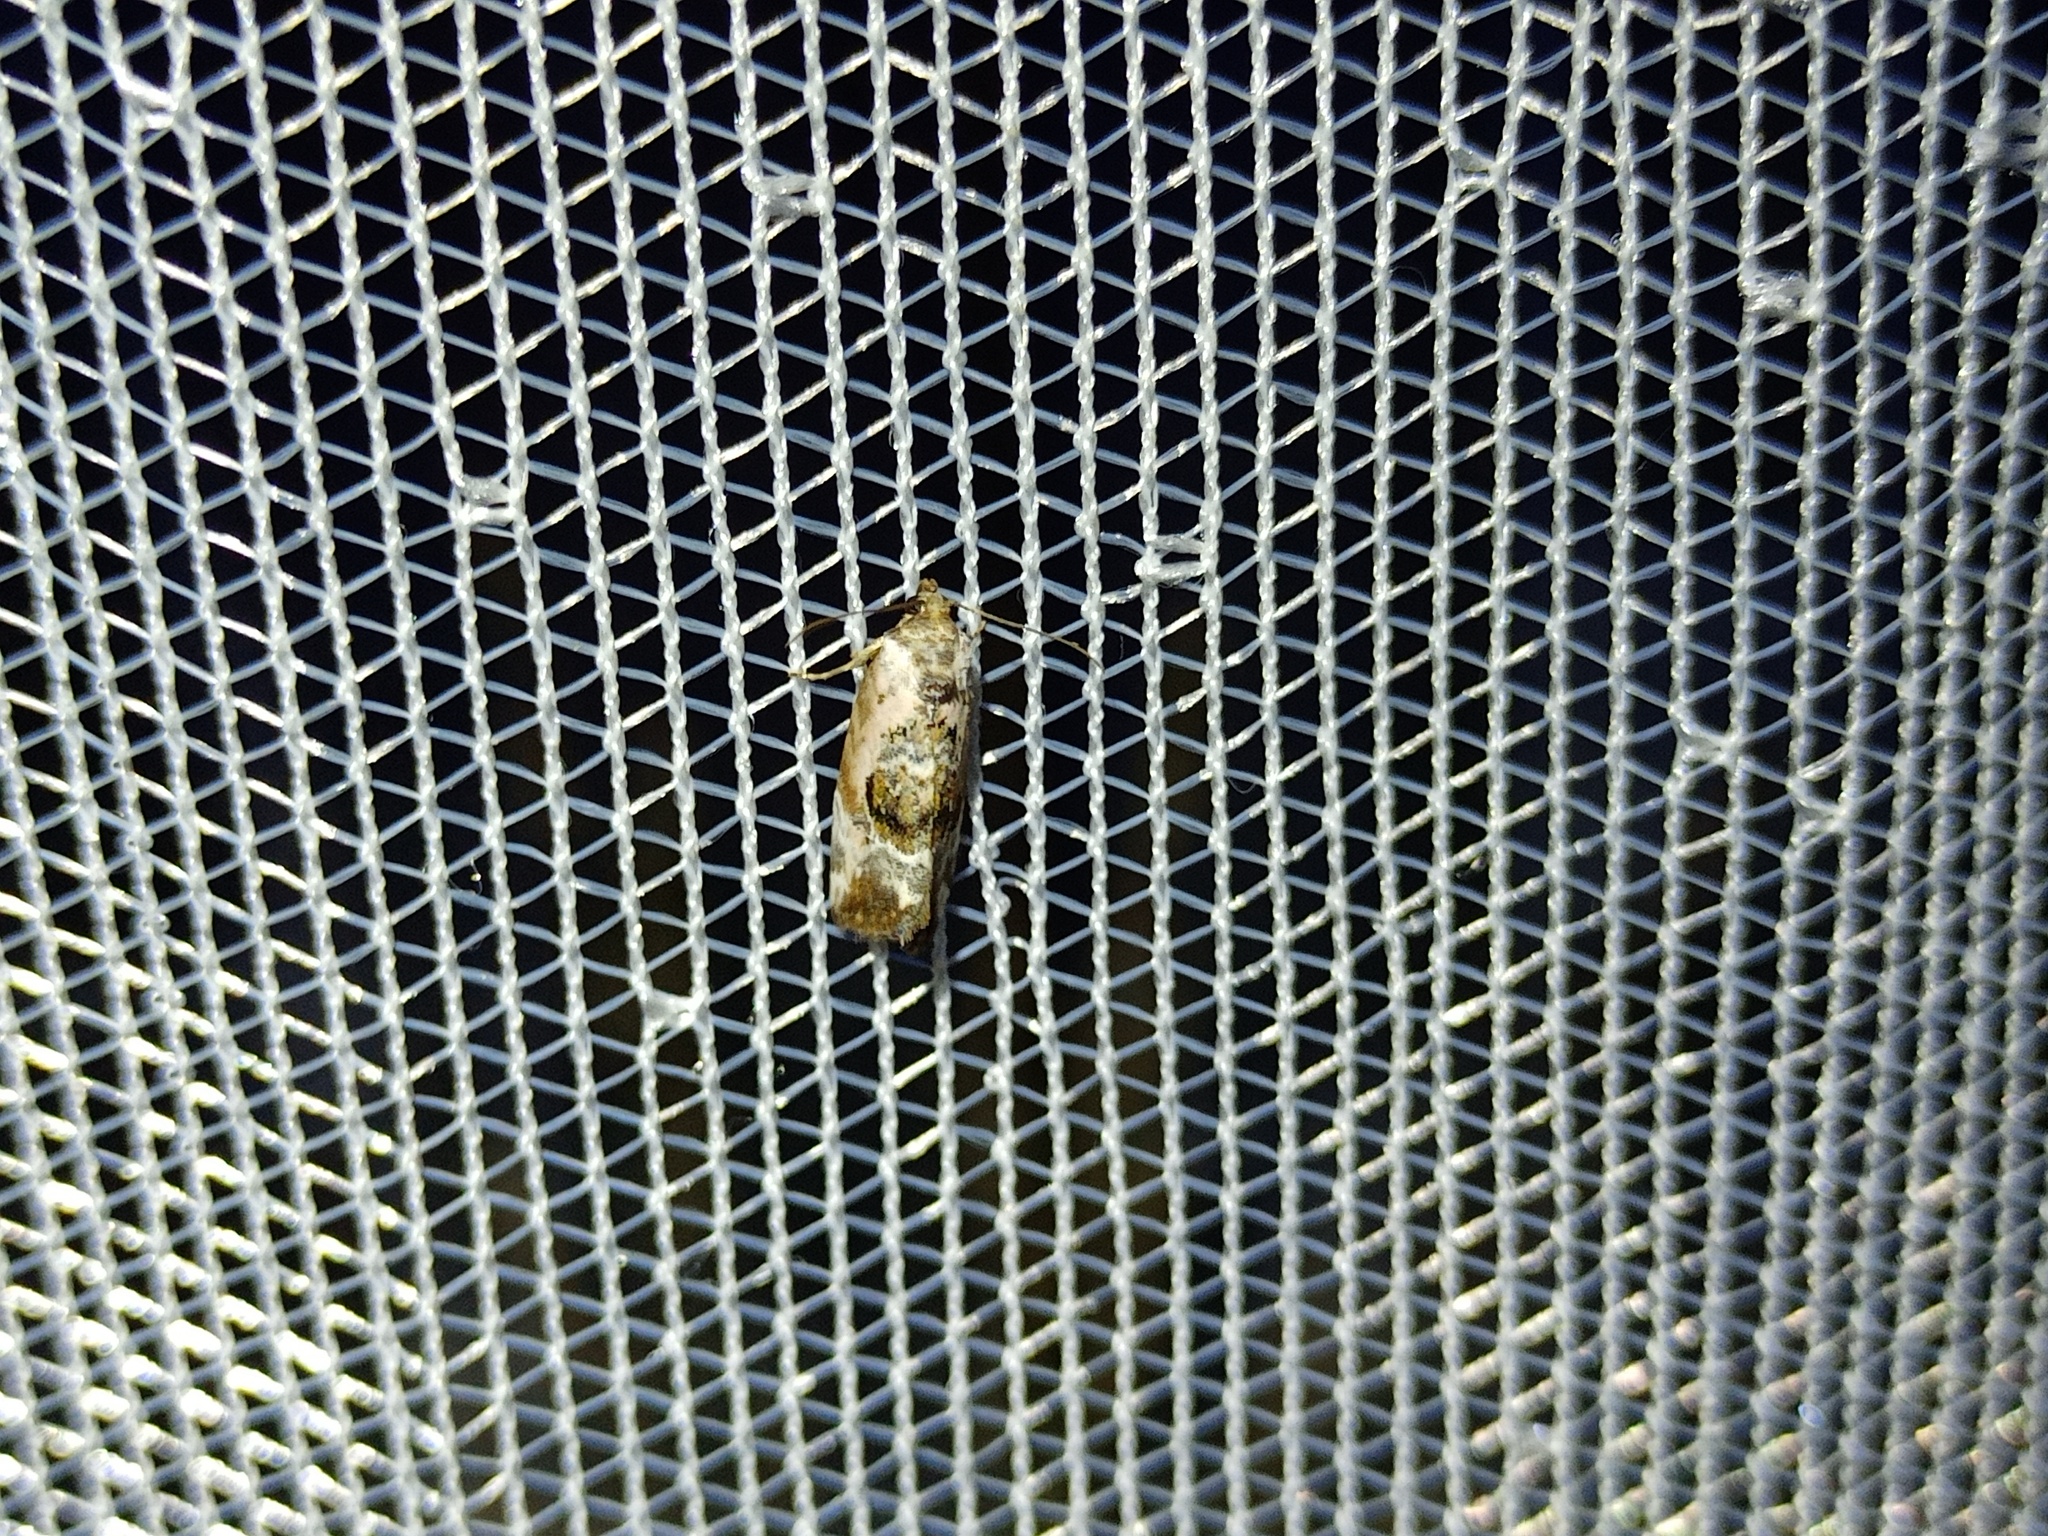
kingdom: Animalia
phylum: Arthropoda
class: Insecta
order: Lepidoptera
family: Noctuidae
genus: Elaphria
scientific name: Elaphria venustula
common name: Rosy marbled
